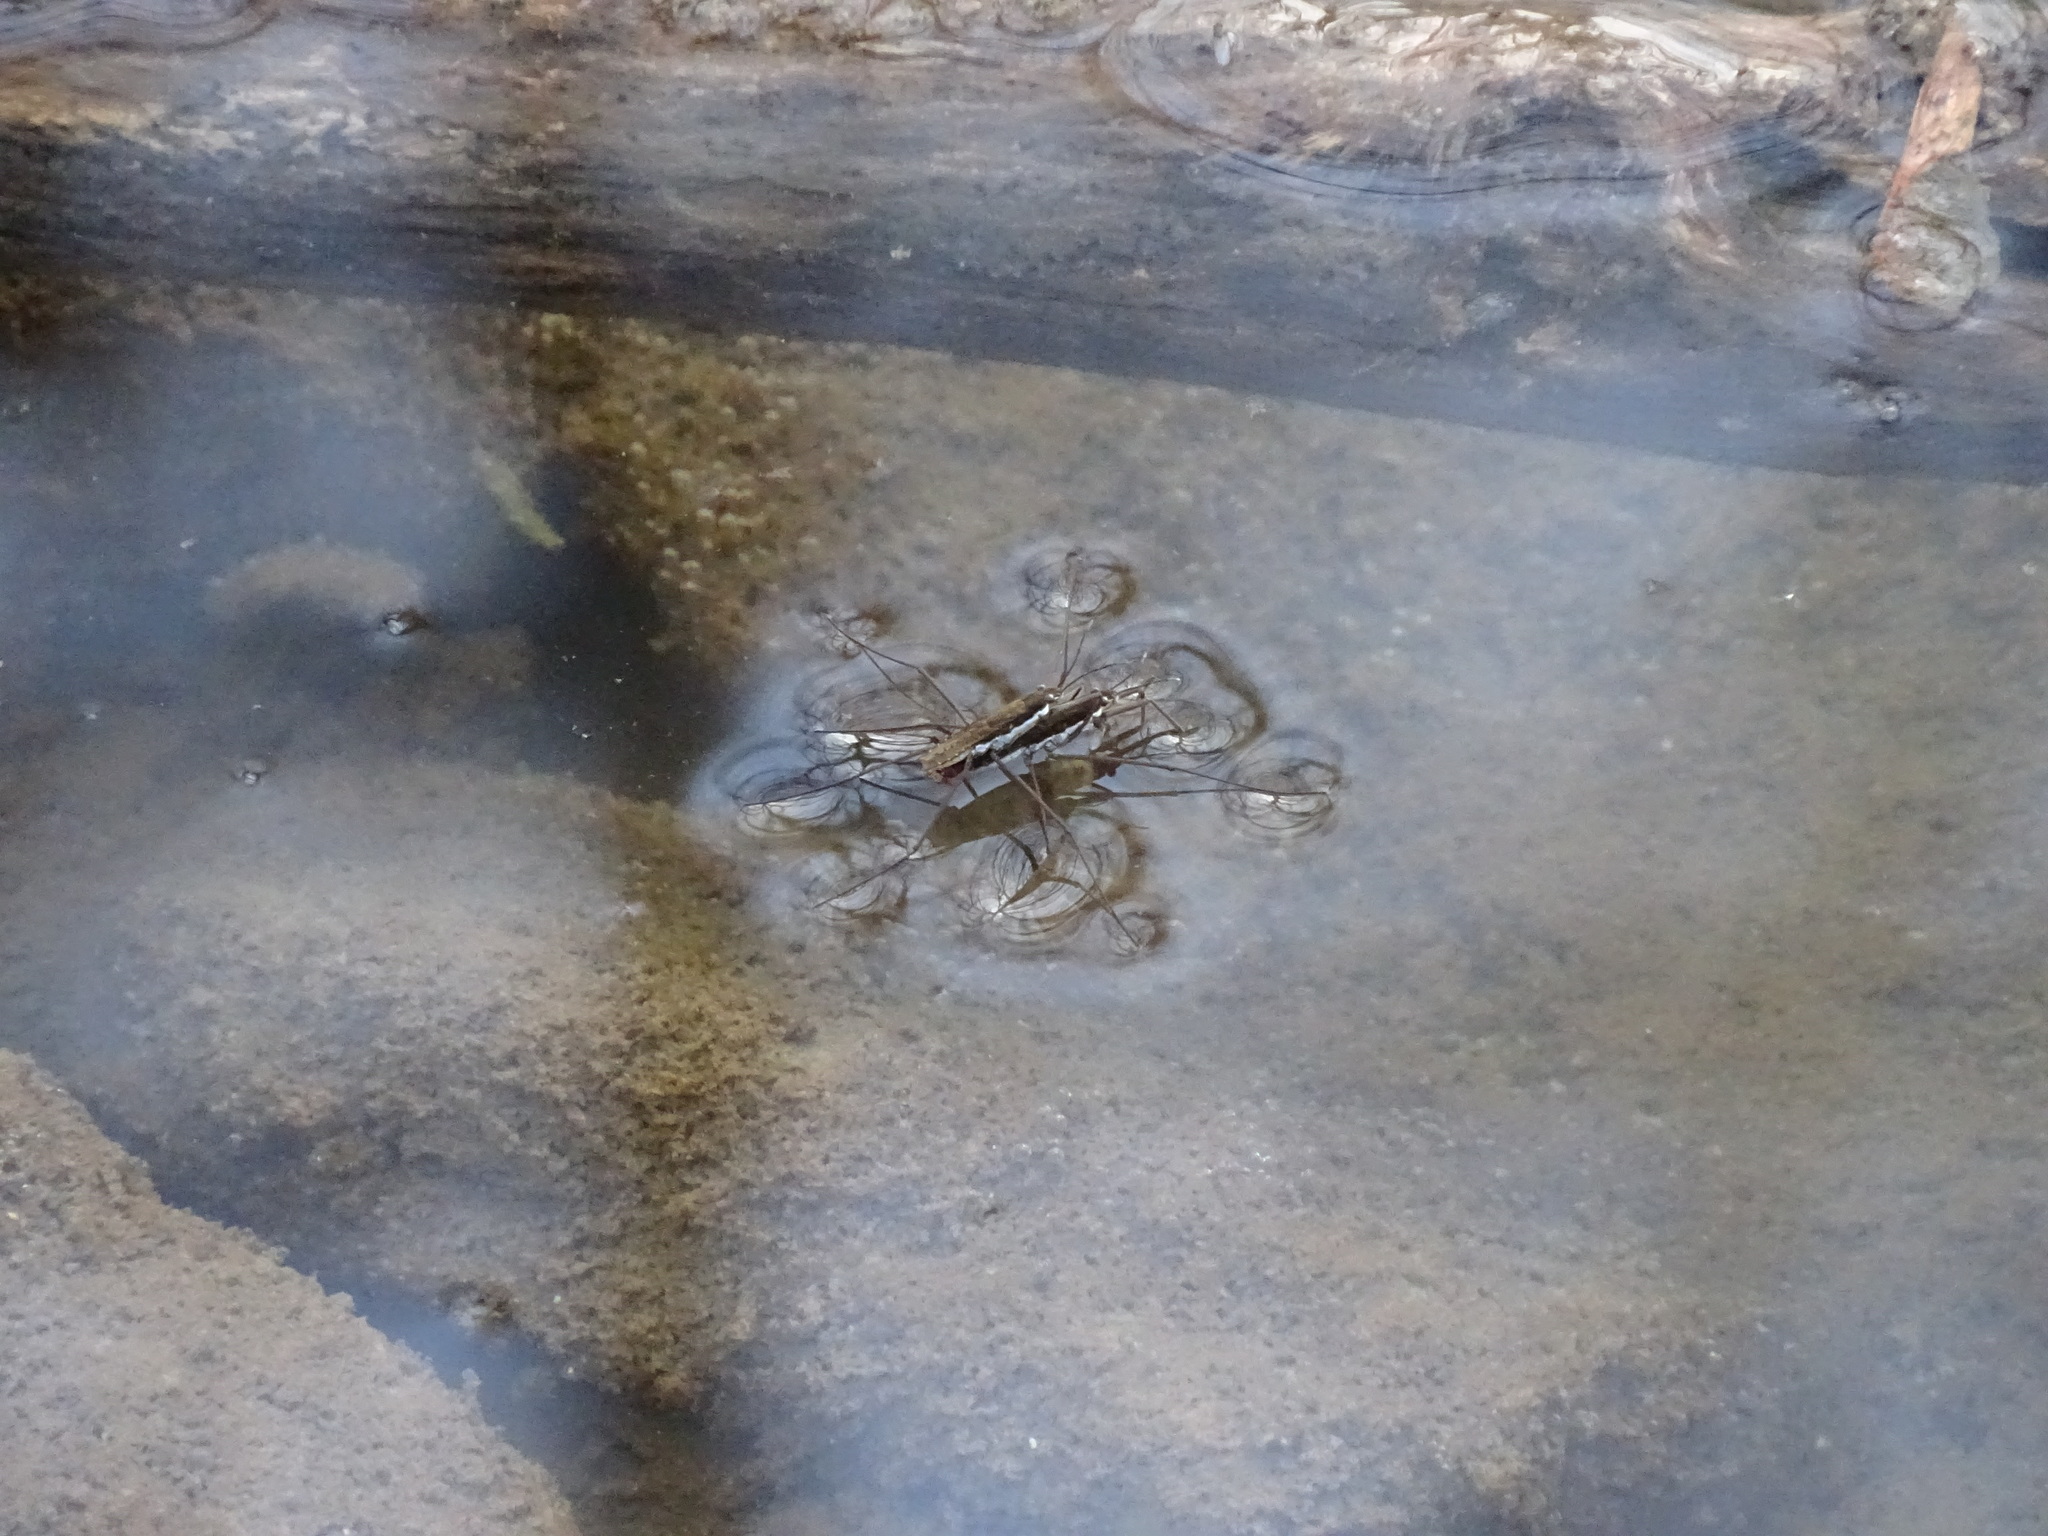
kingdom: Animalia
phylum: Arthropoda
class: Insecta
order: Hemiptera
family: Gerridae
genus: Aquarius
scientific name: Aquarius remigis
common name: Common water strider
